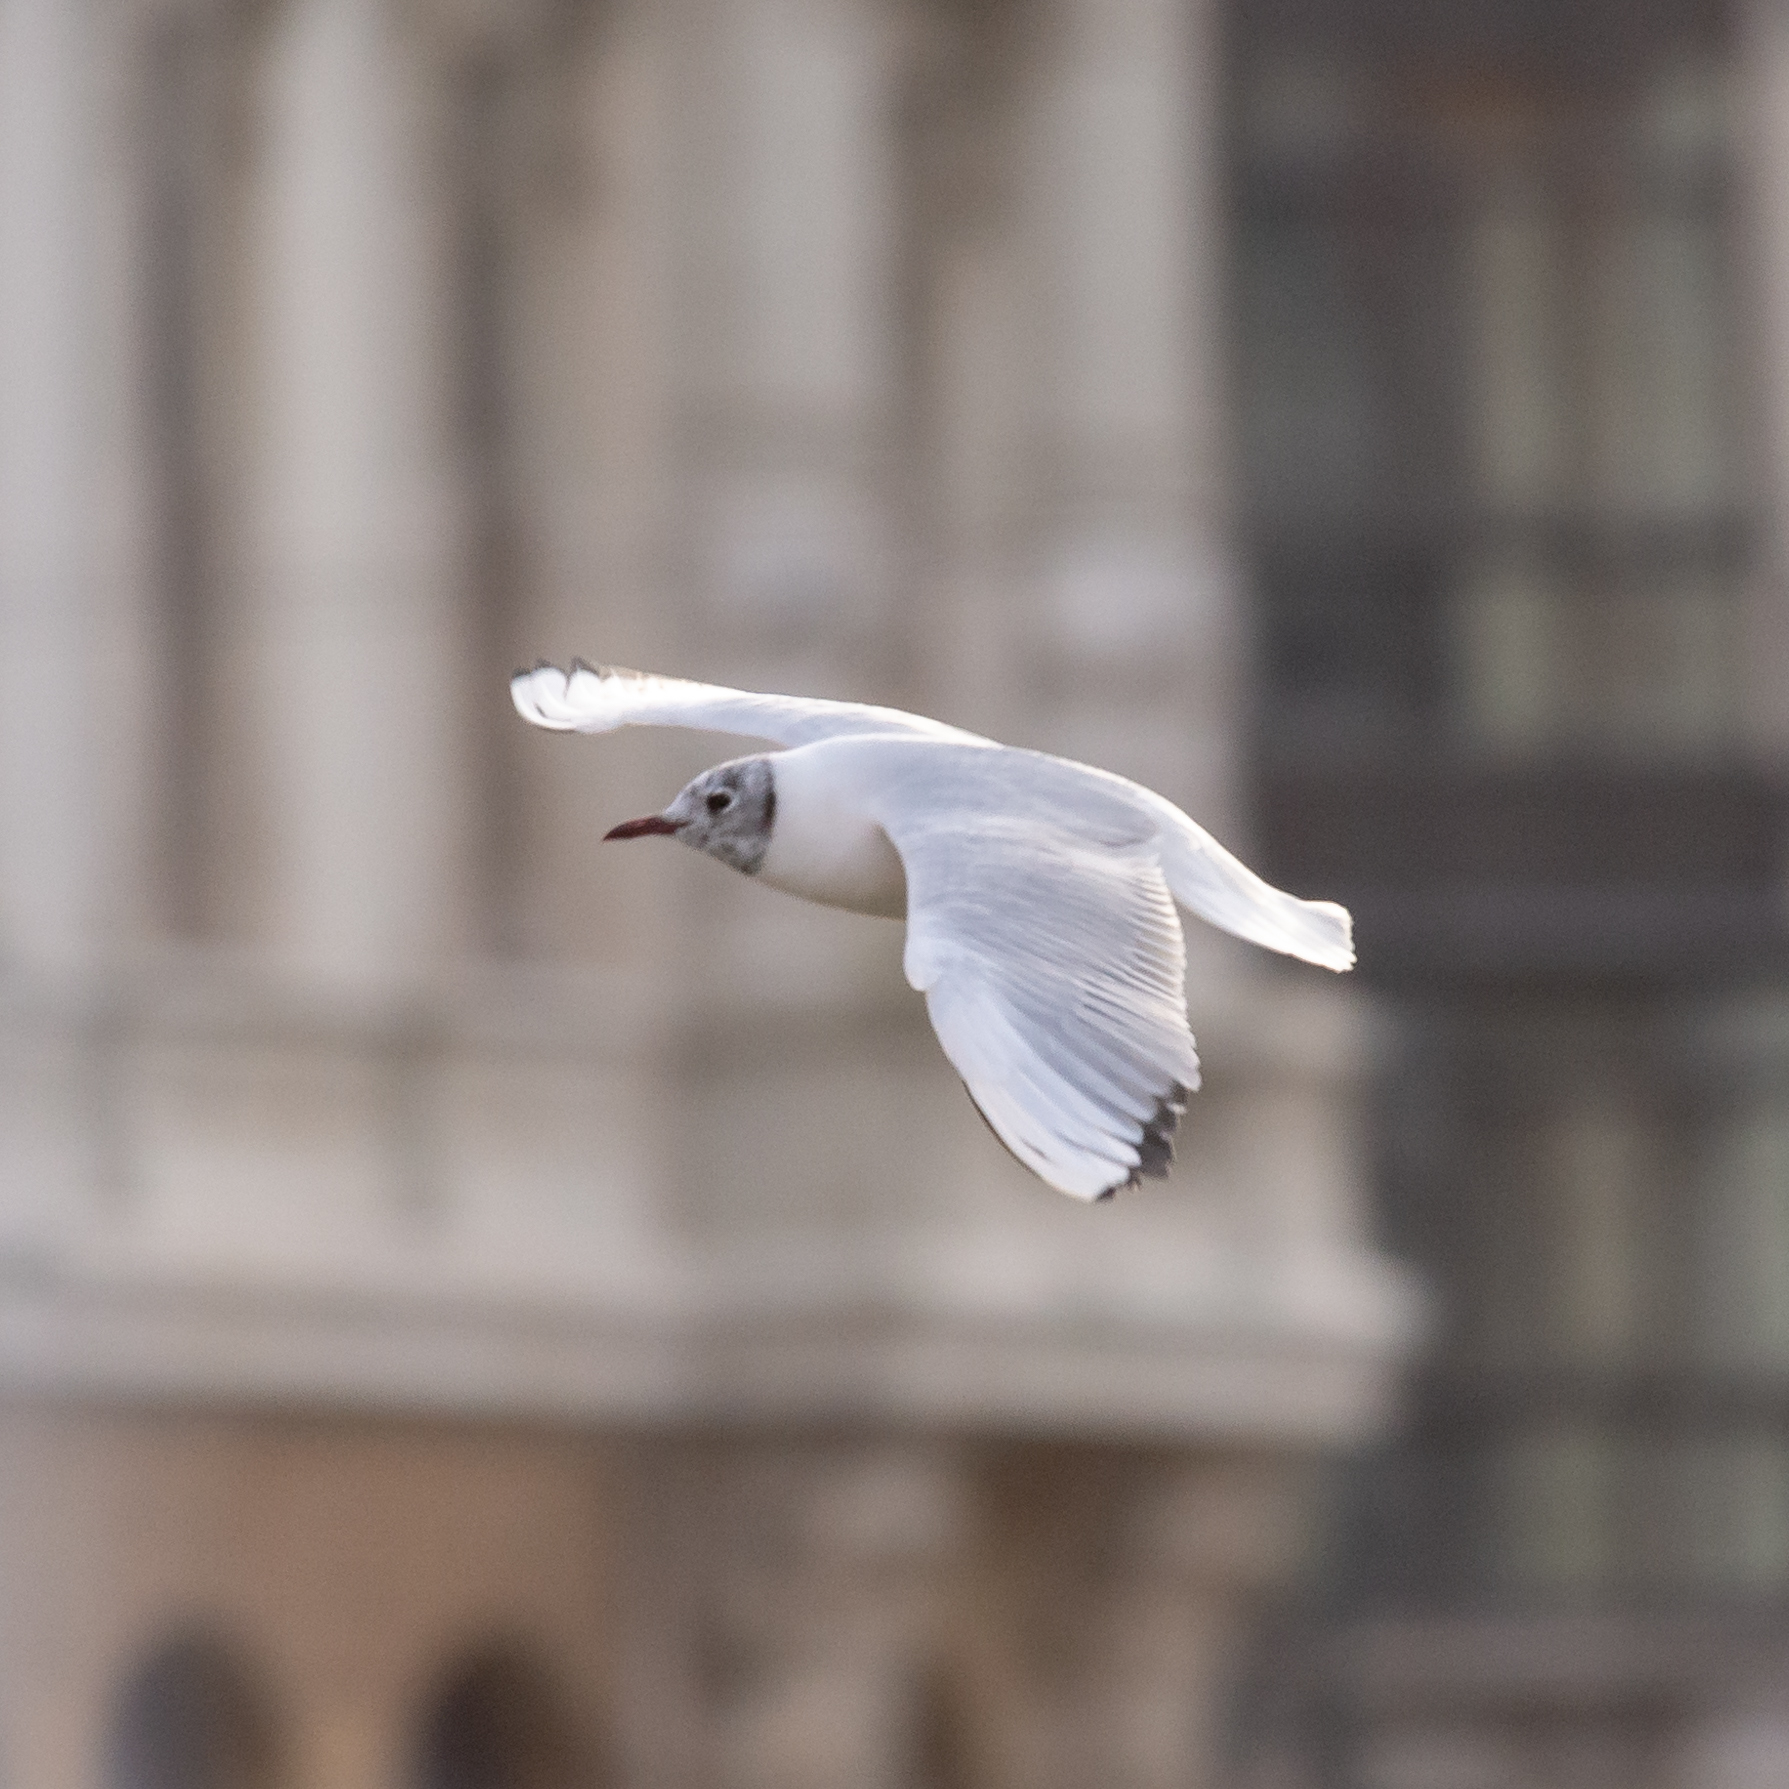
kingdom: Animalia
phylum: Chordata
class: Aves
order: Charadriiformes
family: Laridae
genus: Chroicocephalus
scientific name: Chroicocephalus ridibundus
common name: Black-headed gull
